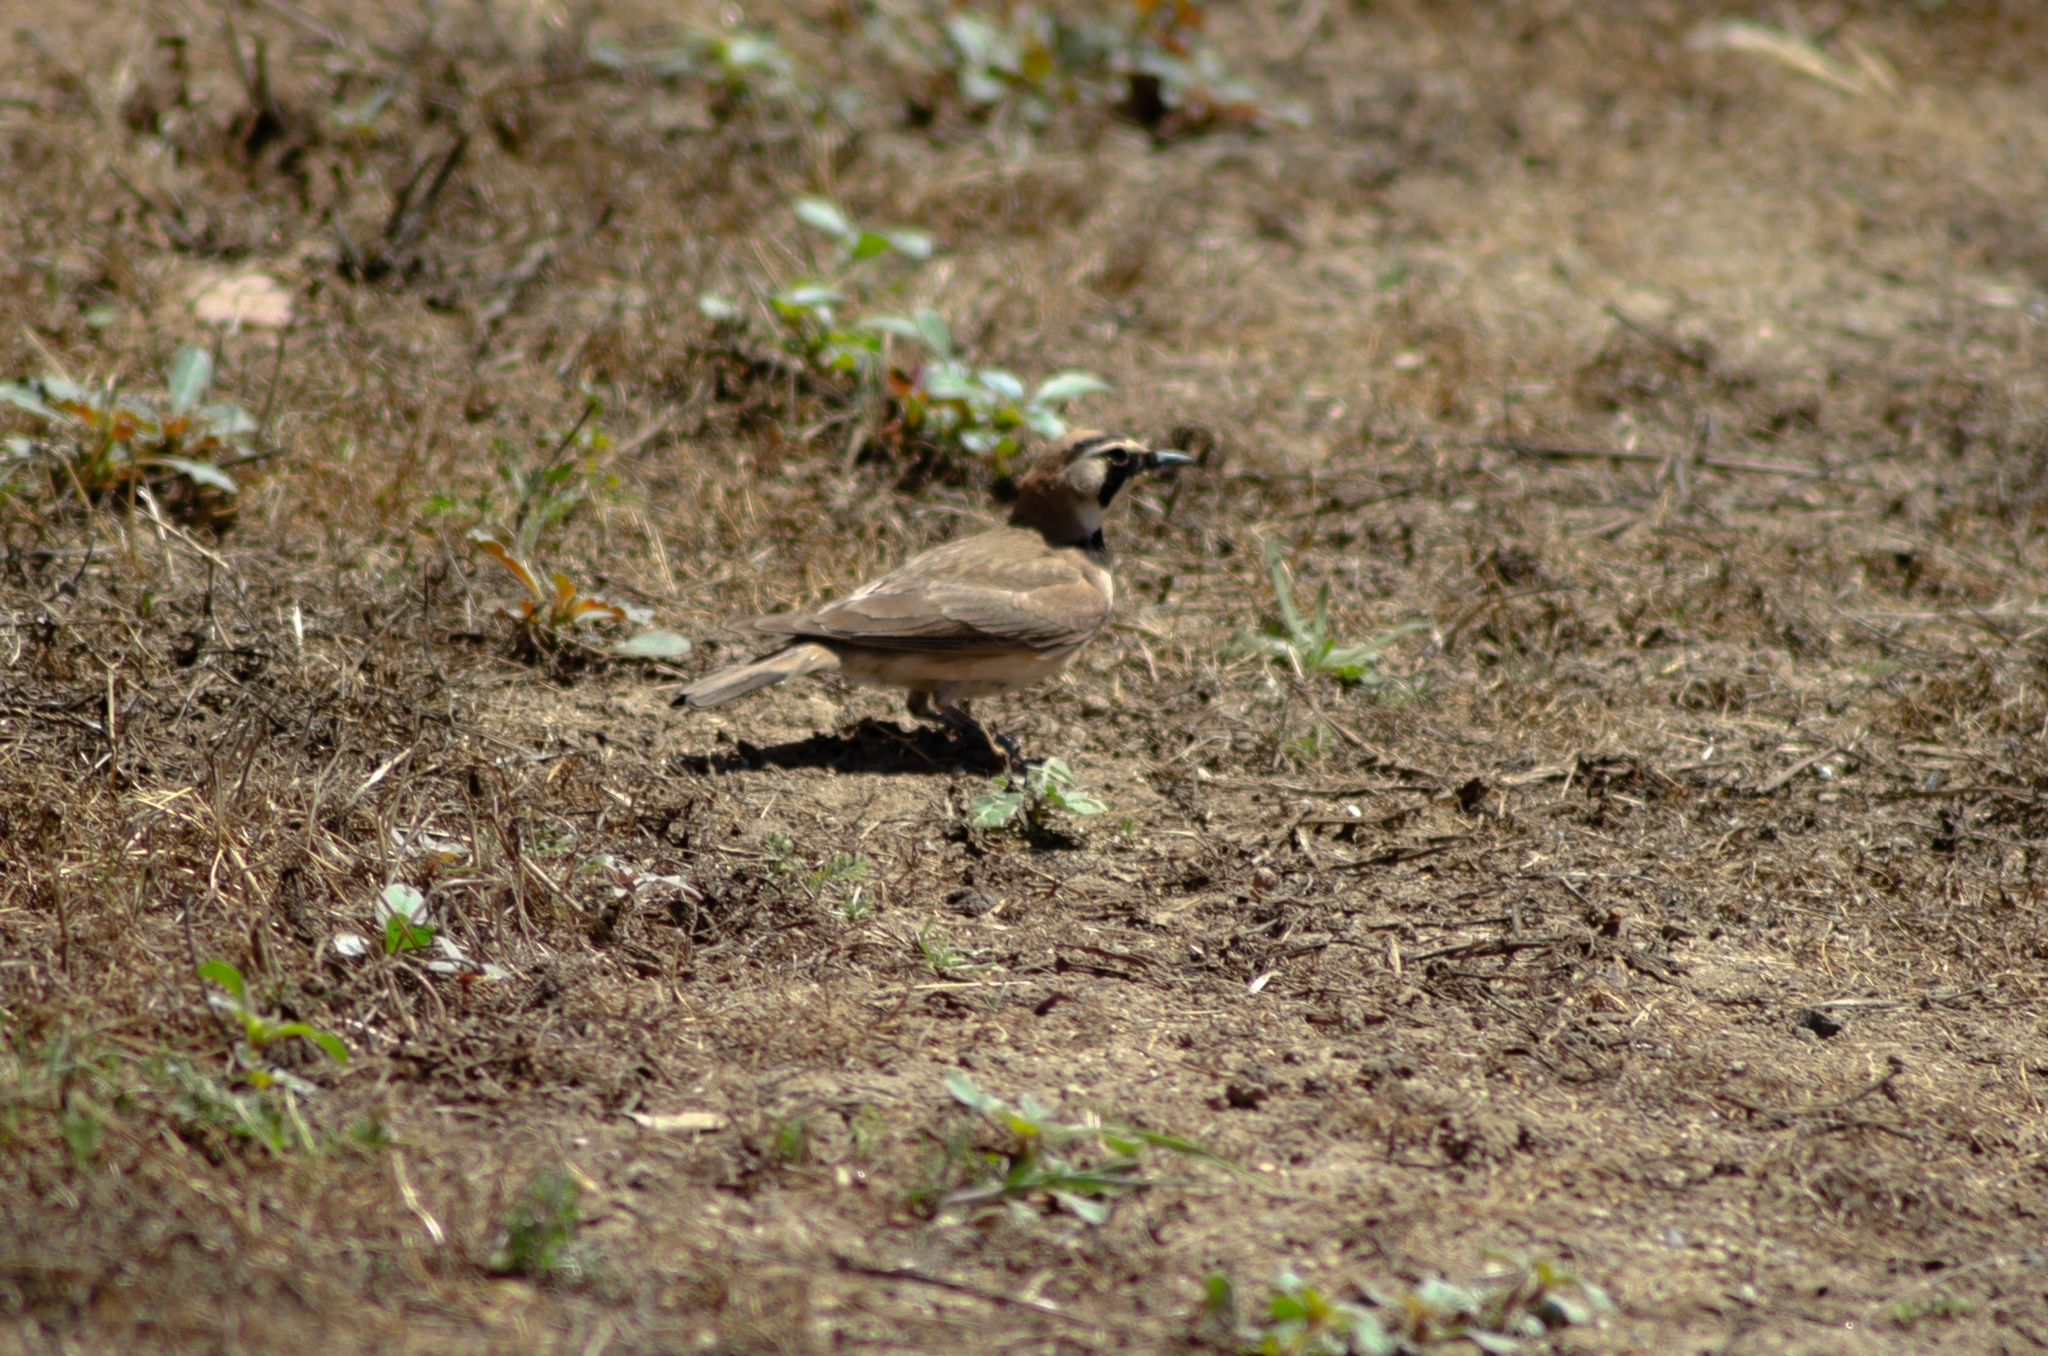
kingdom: Animalia
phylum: Chordata
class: Aves
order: Passeriformes
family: Alaudidae
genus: Eremophila
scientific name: Eremophila alpestris
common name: Horned lark
